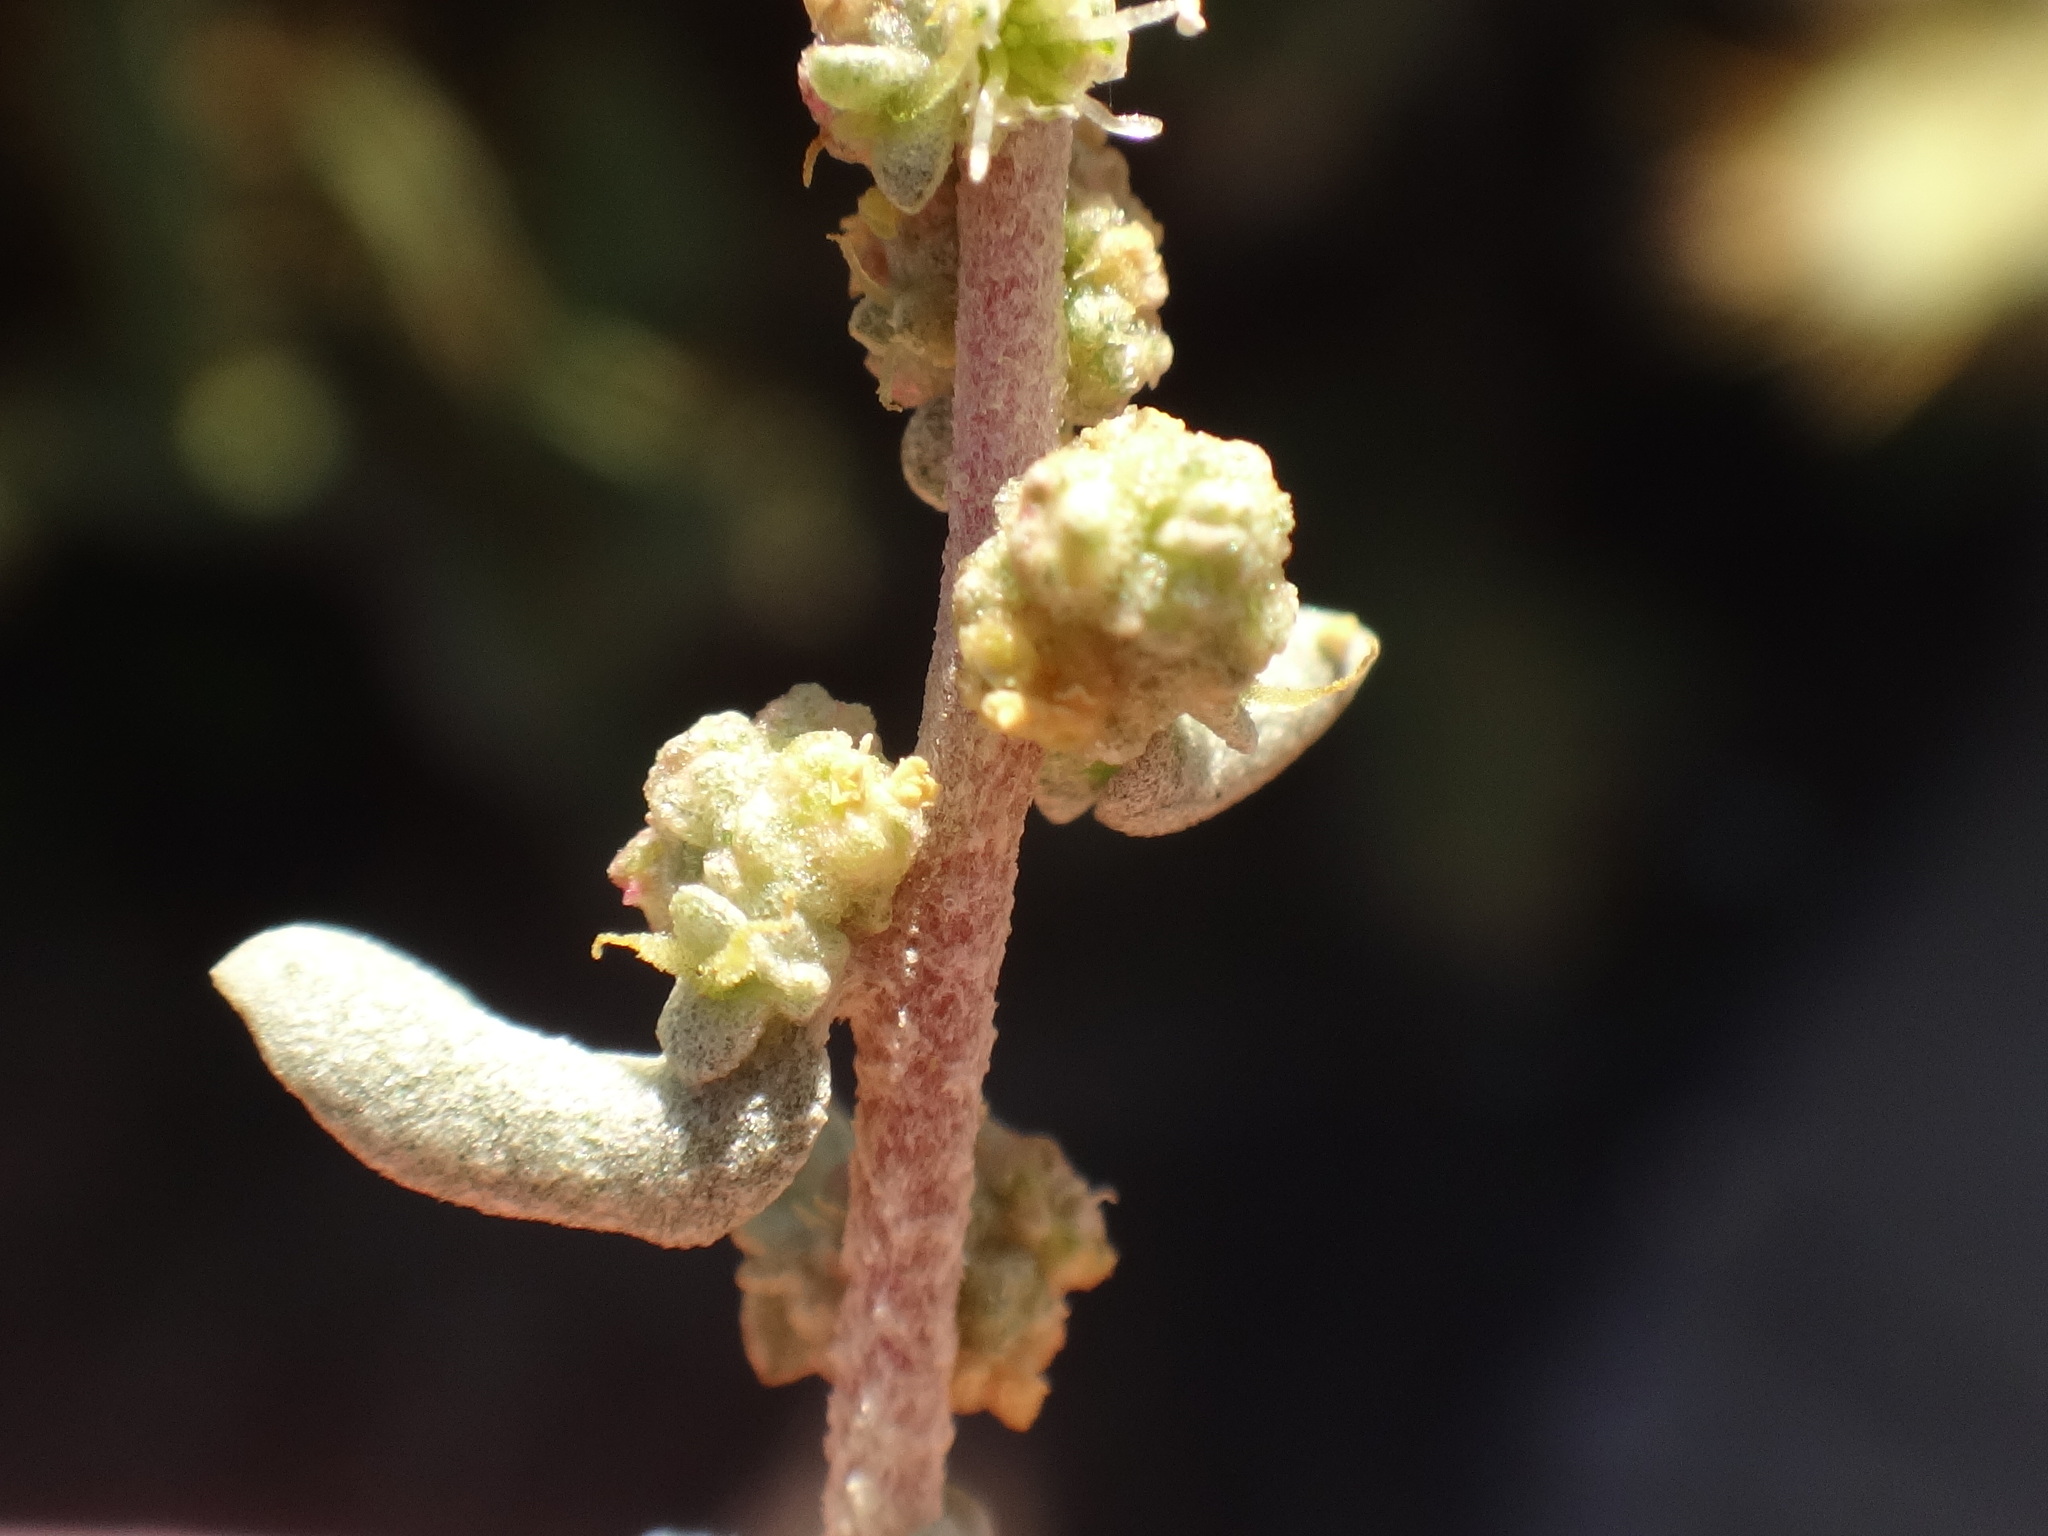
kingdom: Plantae
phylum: Tracheophyta
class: Magnoliopsida
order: Caryophyllales
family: Amaranthaceae
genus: Atriplex
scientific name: Atriplex glauca
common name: Waxy saltbush
